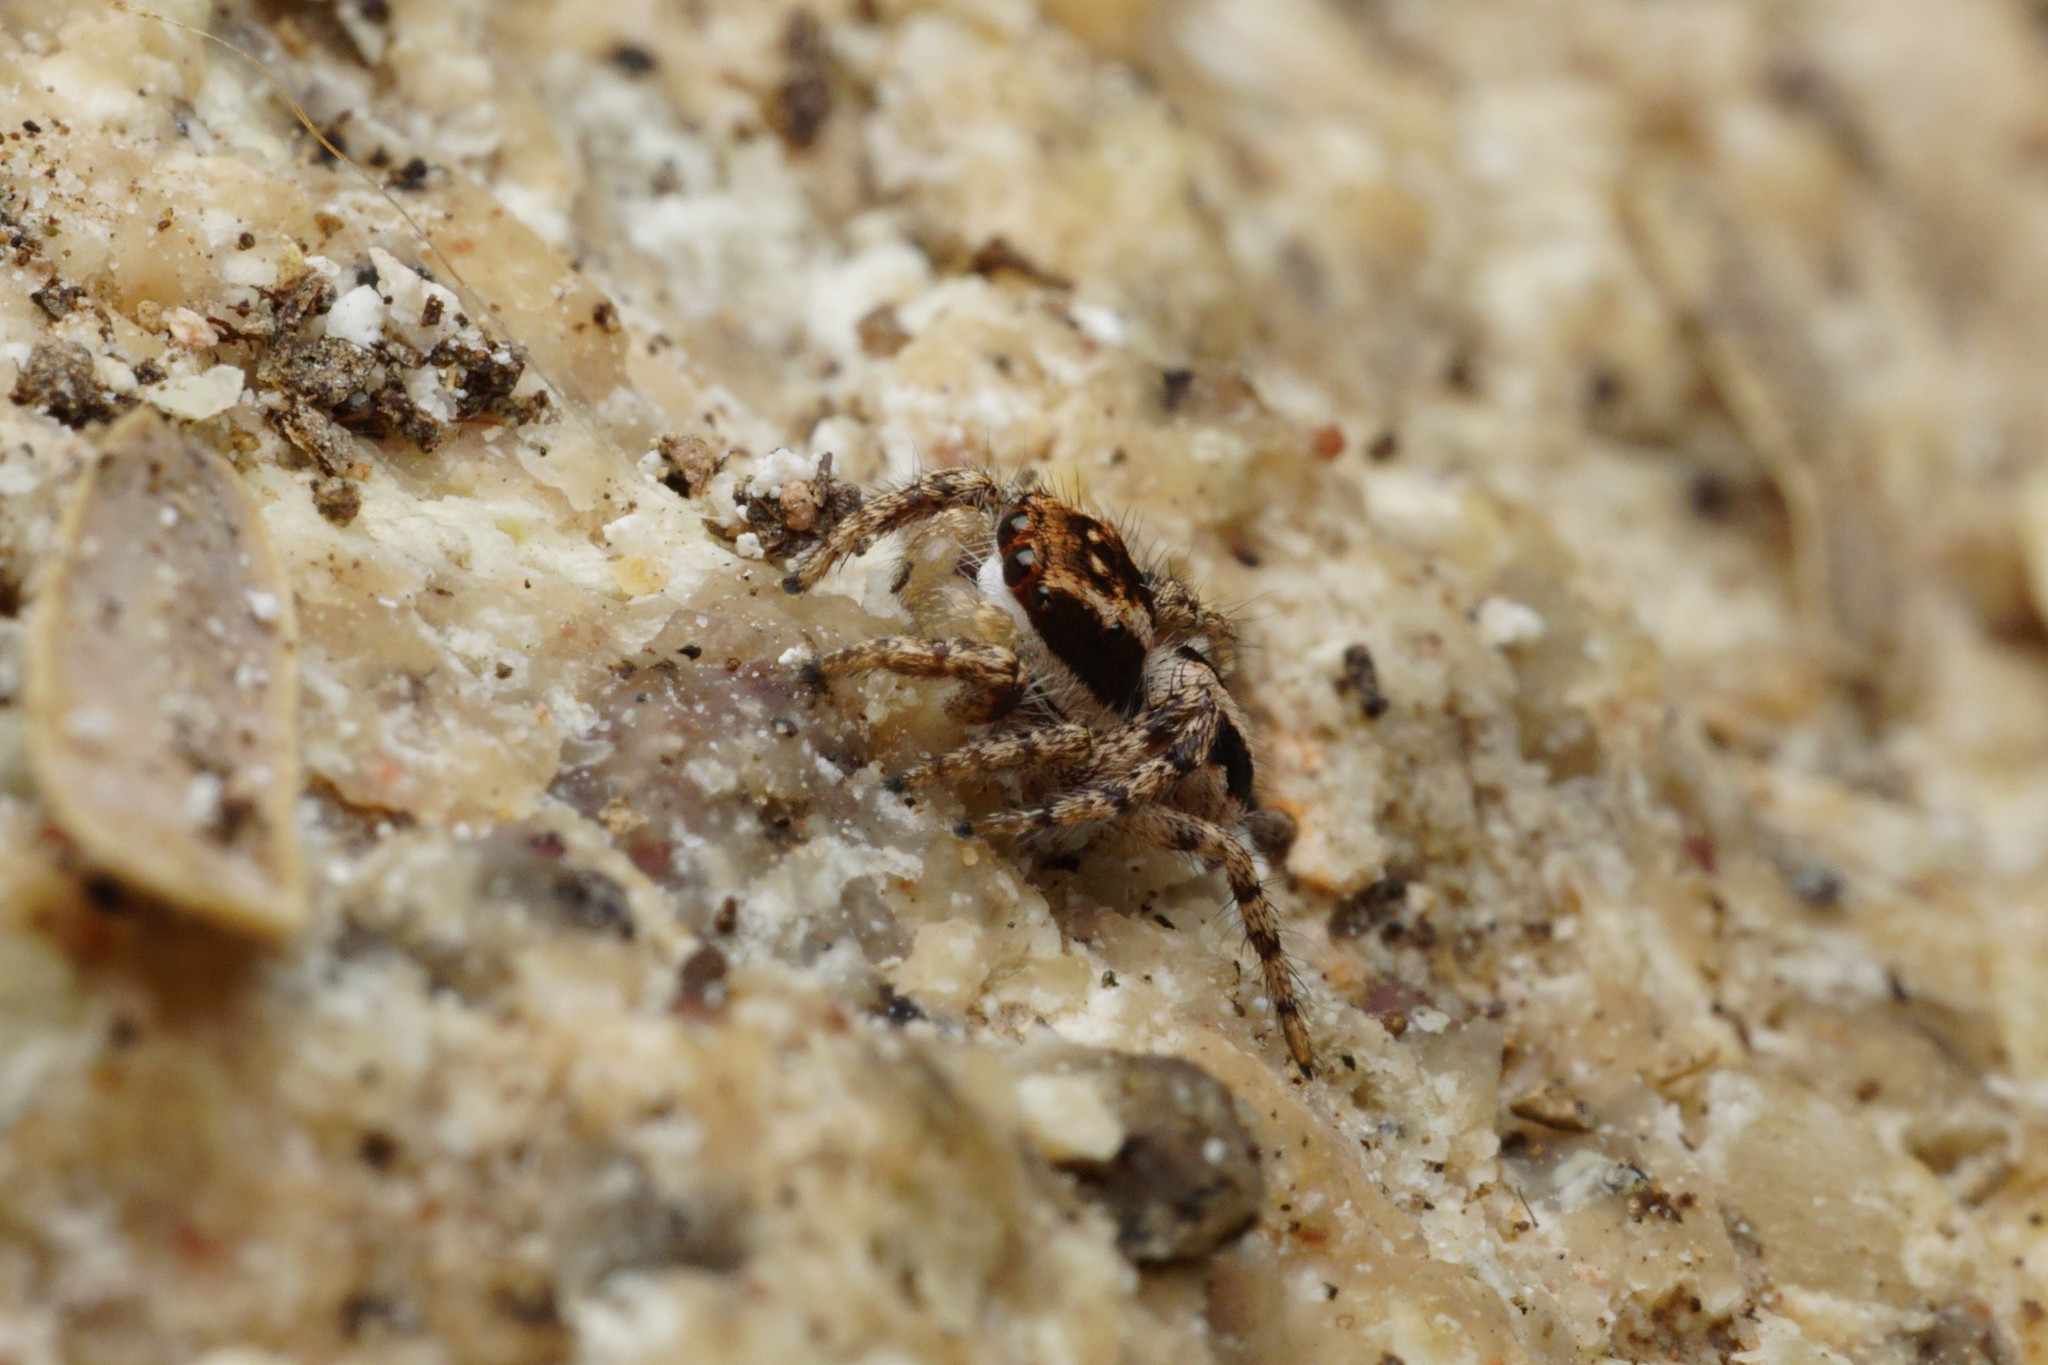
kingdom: Animalia
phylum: Arthropoda
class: Arachnida
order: Araneae
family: Salticidae
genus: Habronattus
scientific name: Habronattus conjunctus
